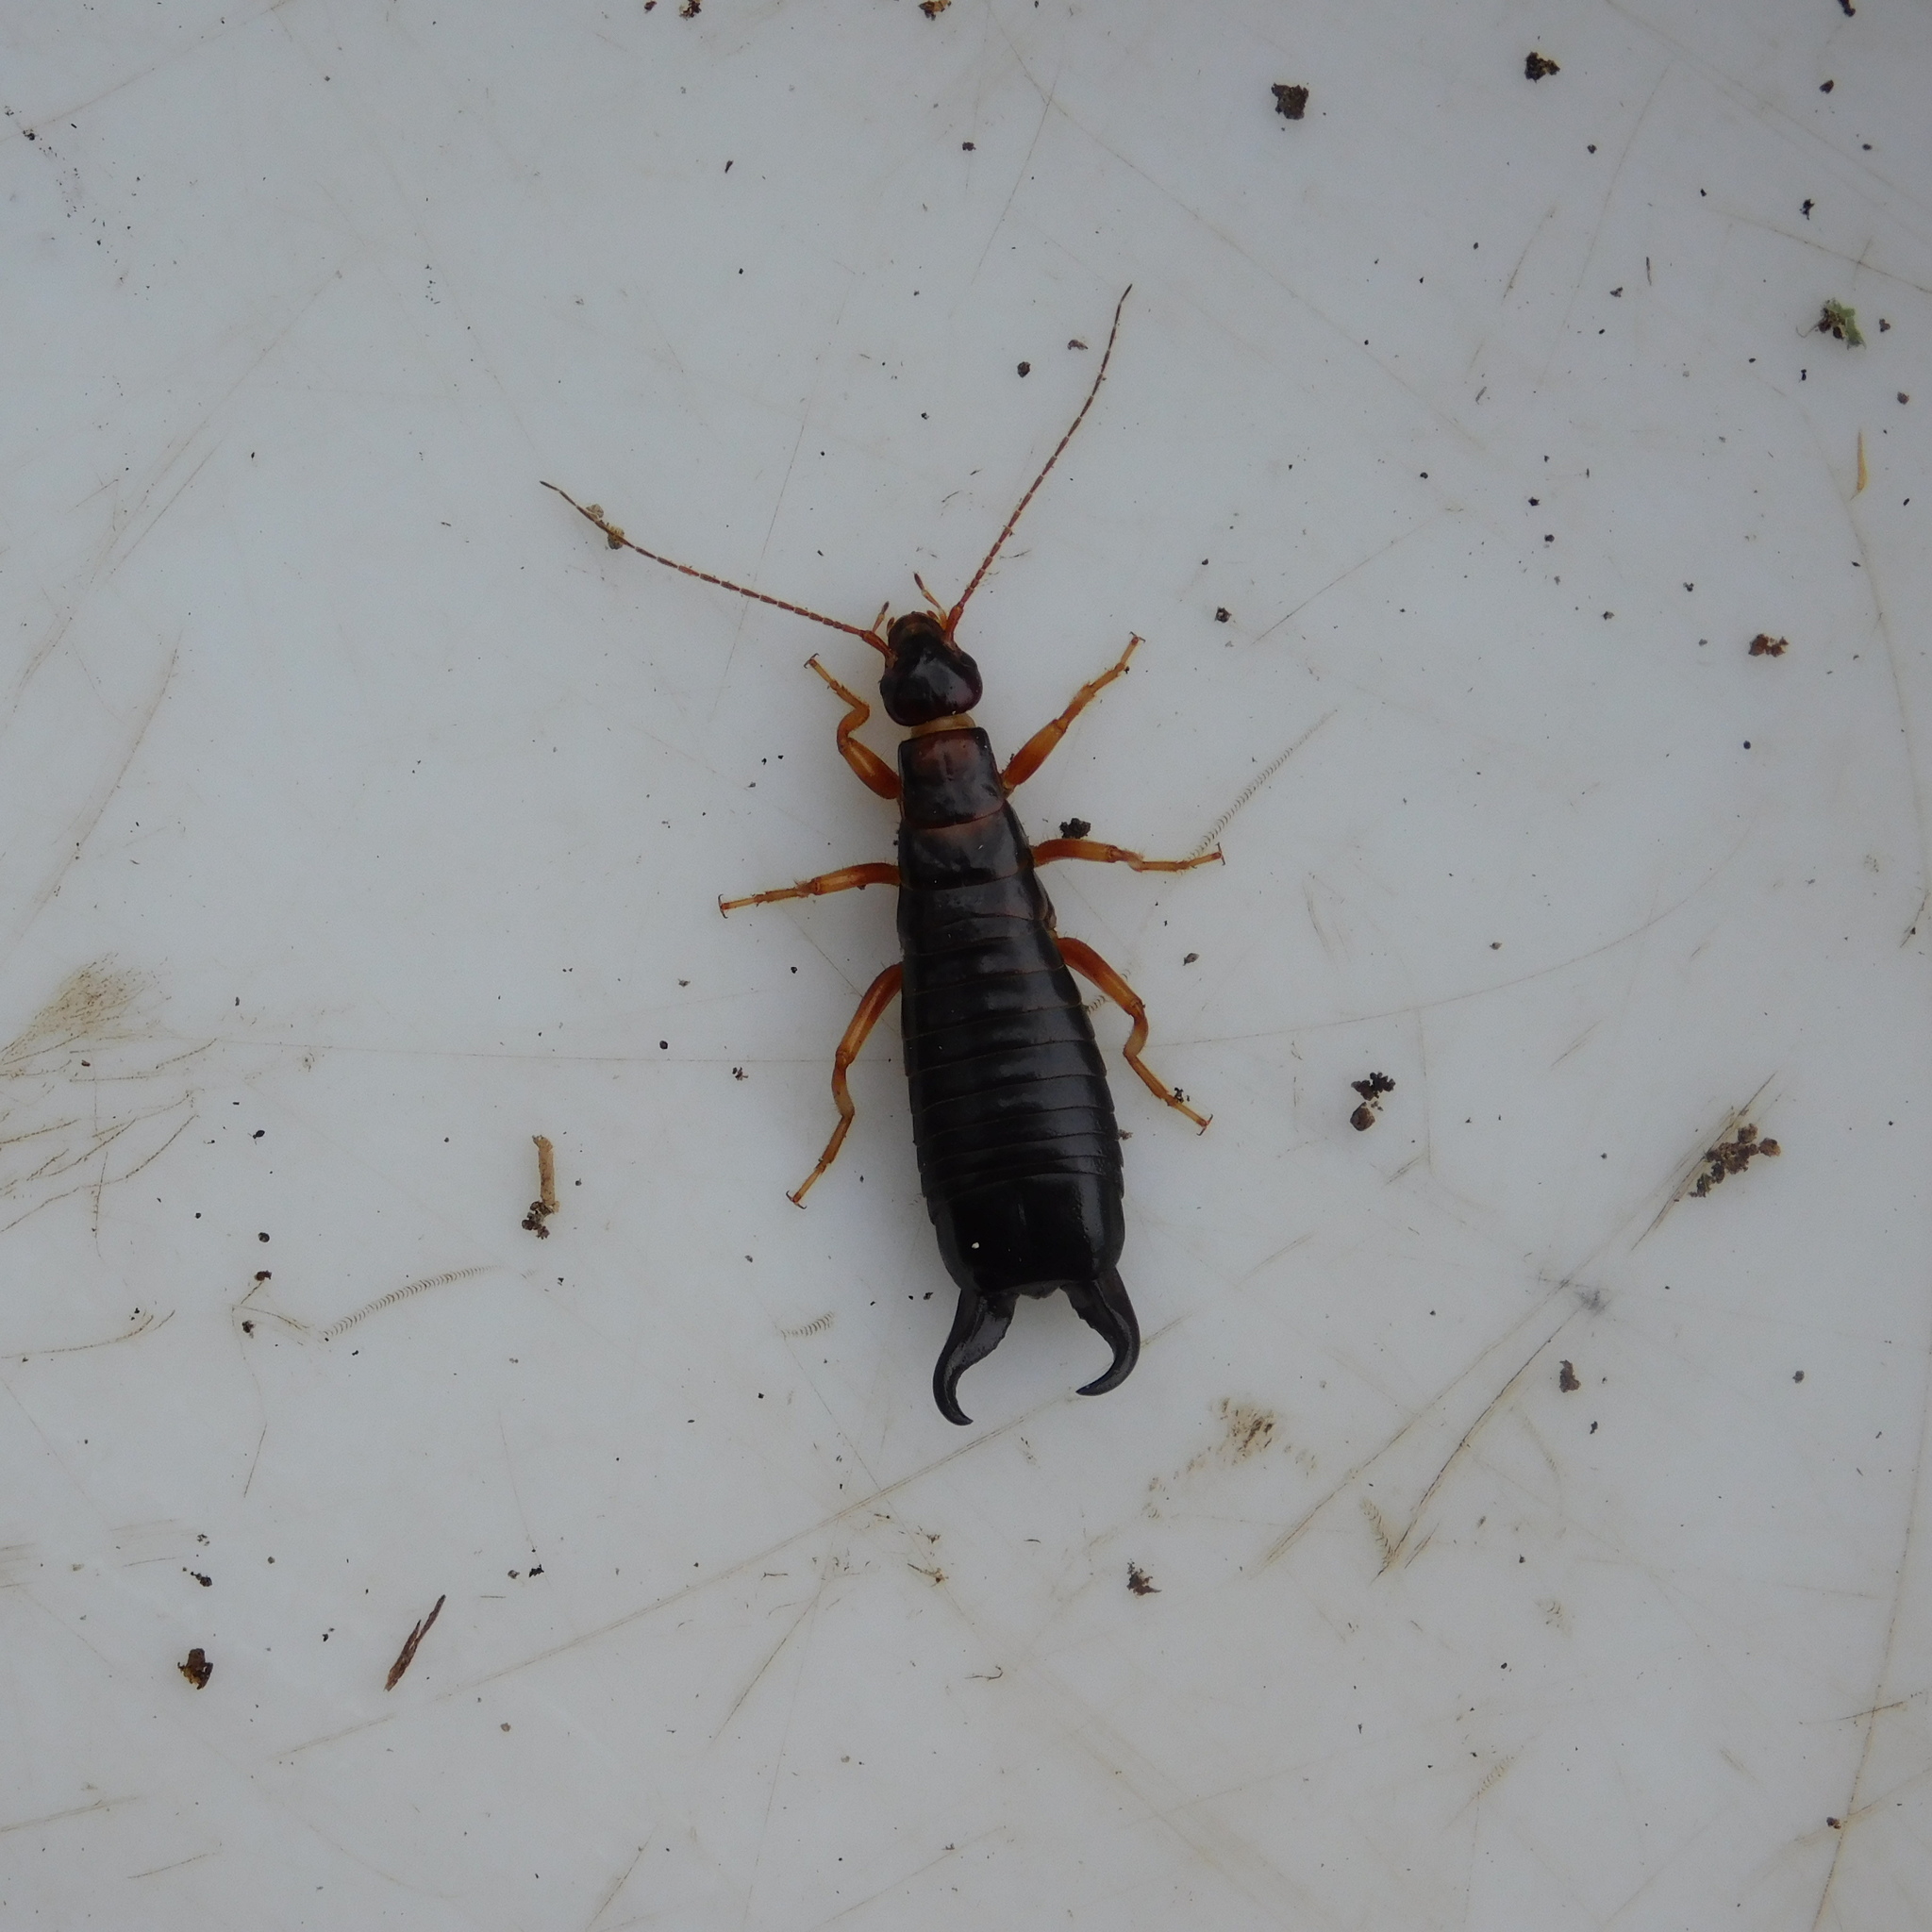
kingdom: Animalia
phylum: Arthropoda
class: Insecta
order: Dermaptera
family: Anisolabididae
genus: Anisolabis
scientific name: Anisolabis littorea
